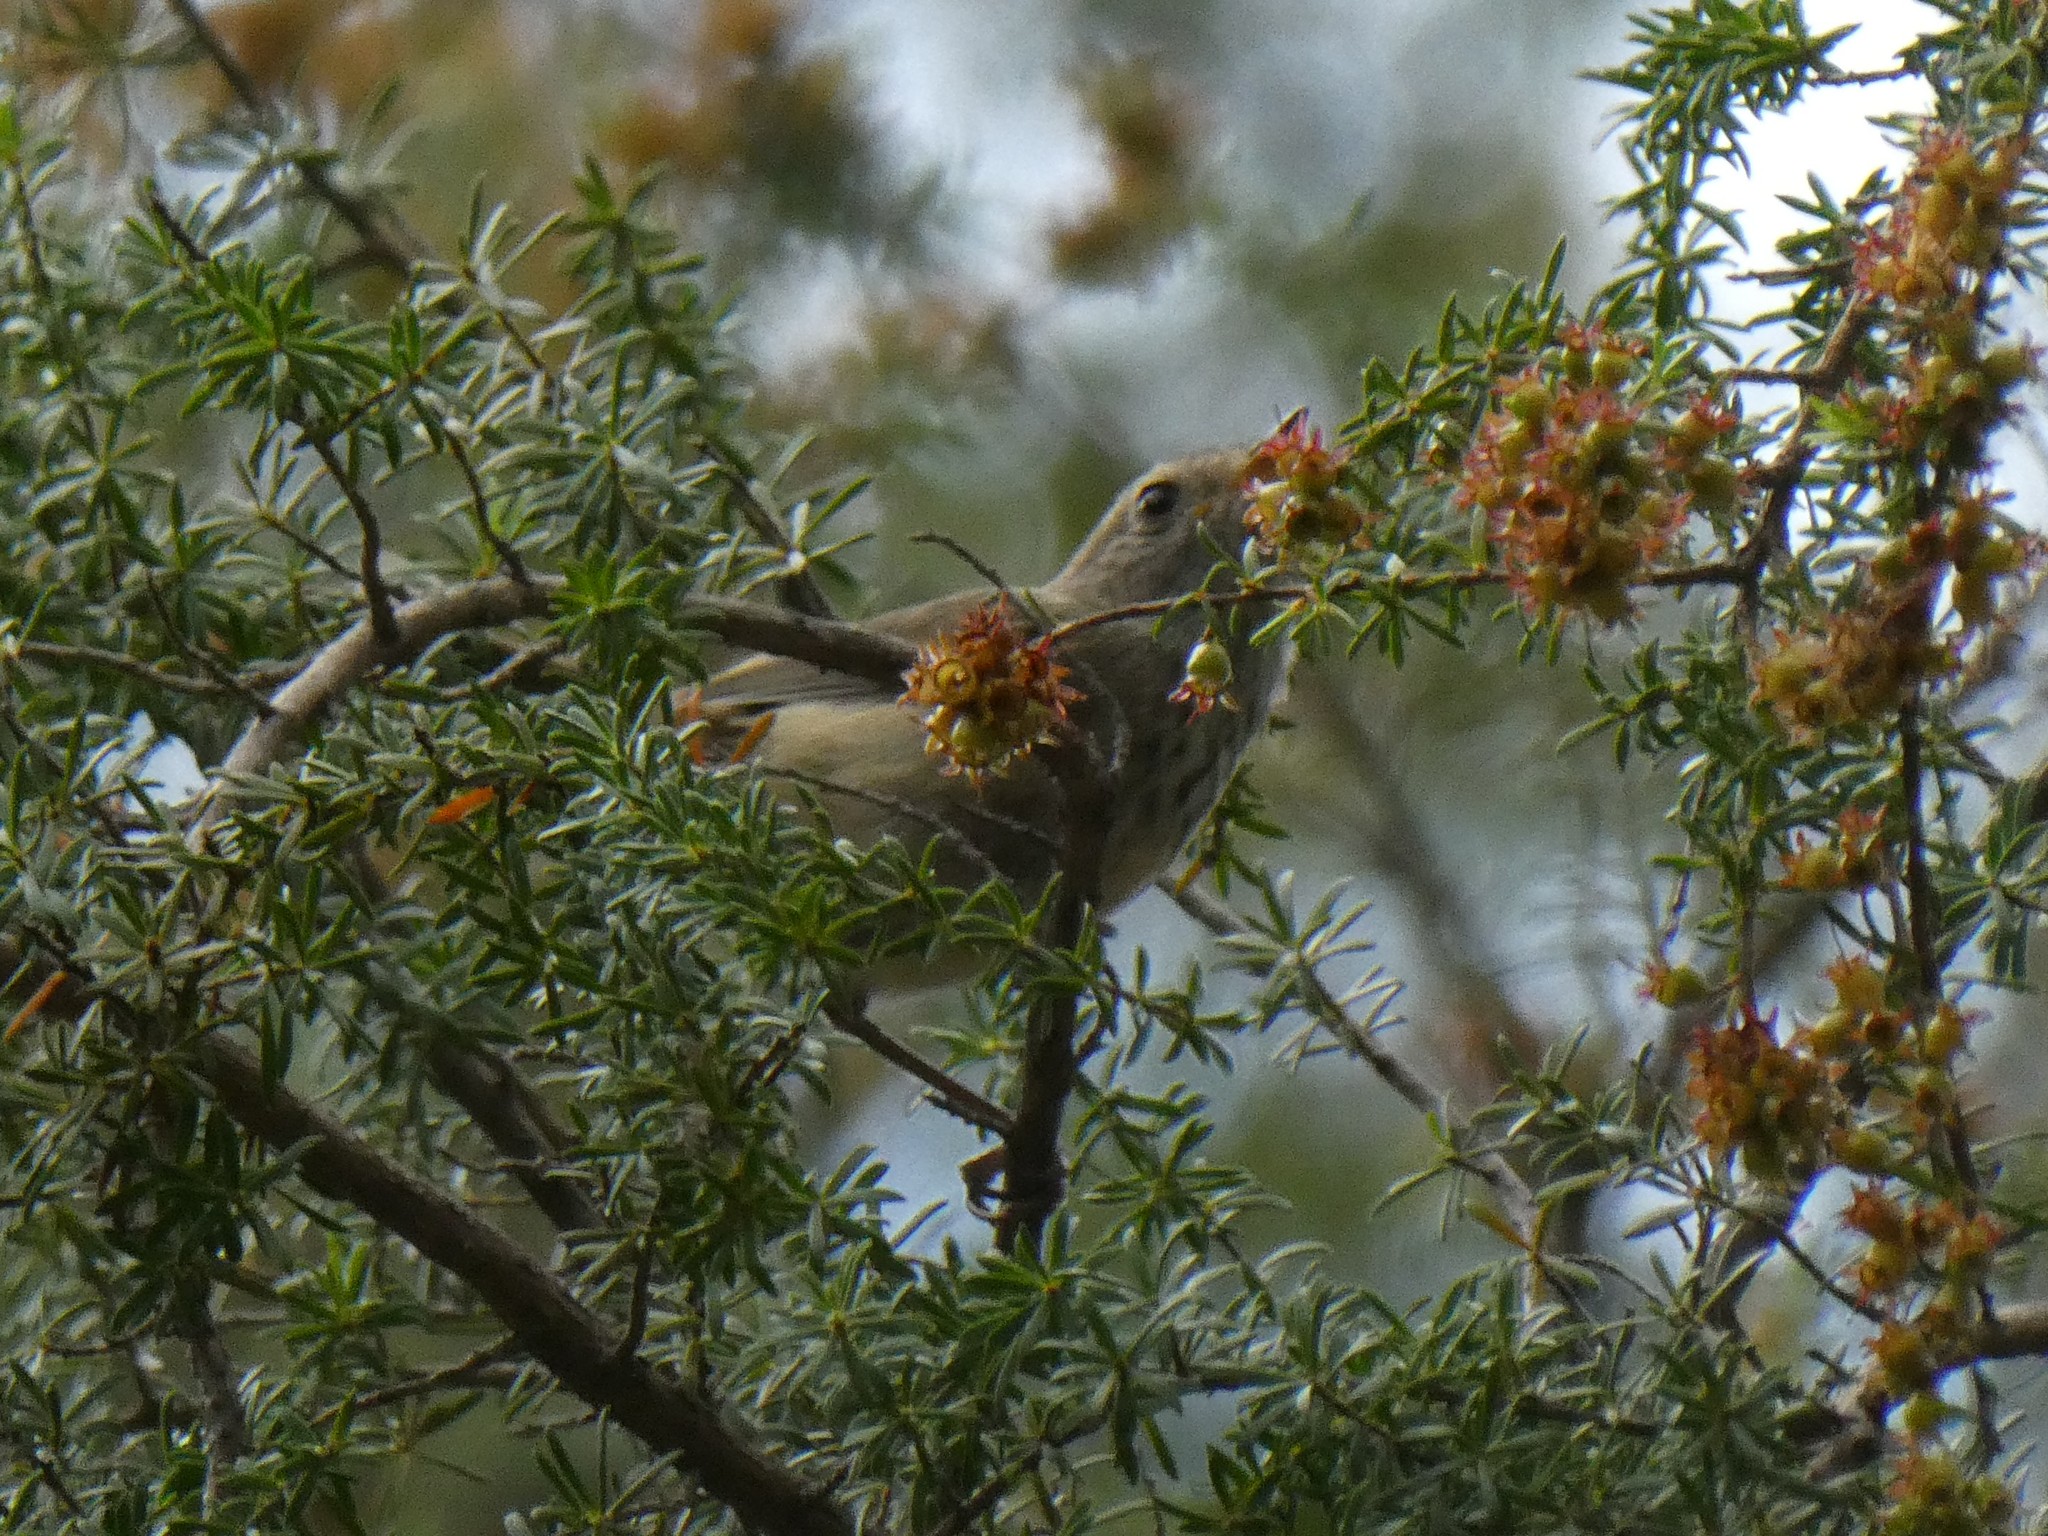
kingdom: Animalia
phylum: Chordata
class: Aves
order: Passeriformes
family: Acanthizidae
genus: Acanthiza
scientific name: Acanthiza pusilla
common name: Brown thornbill
